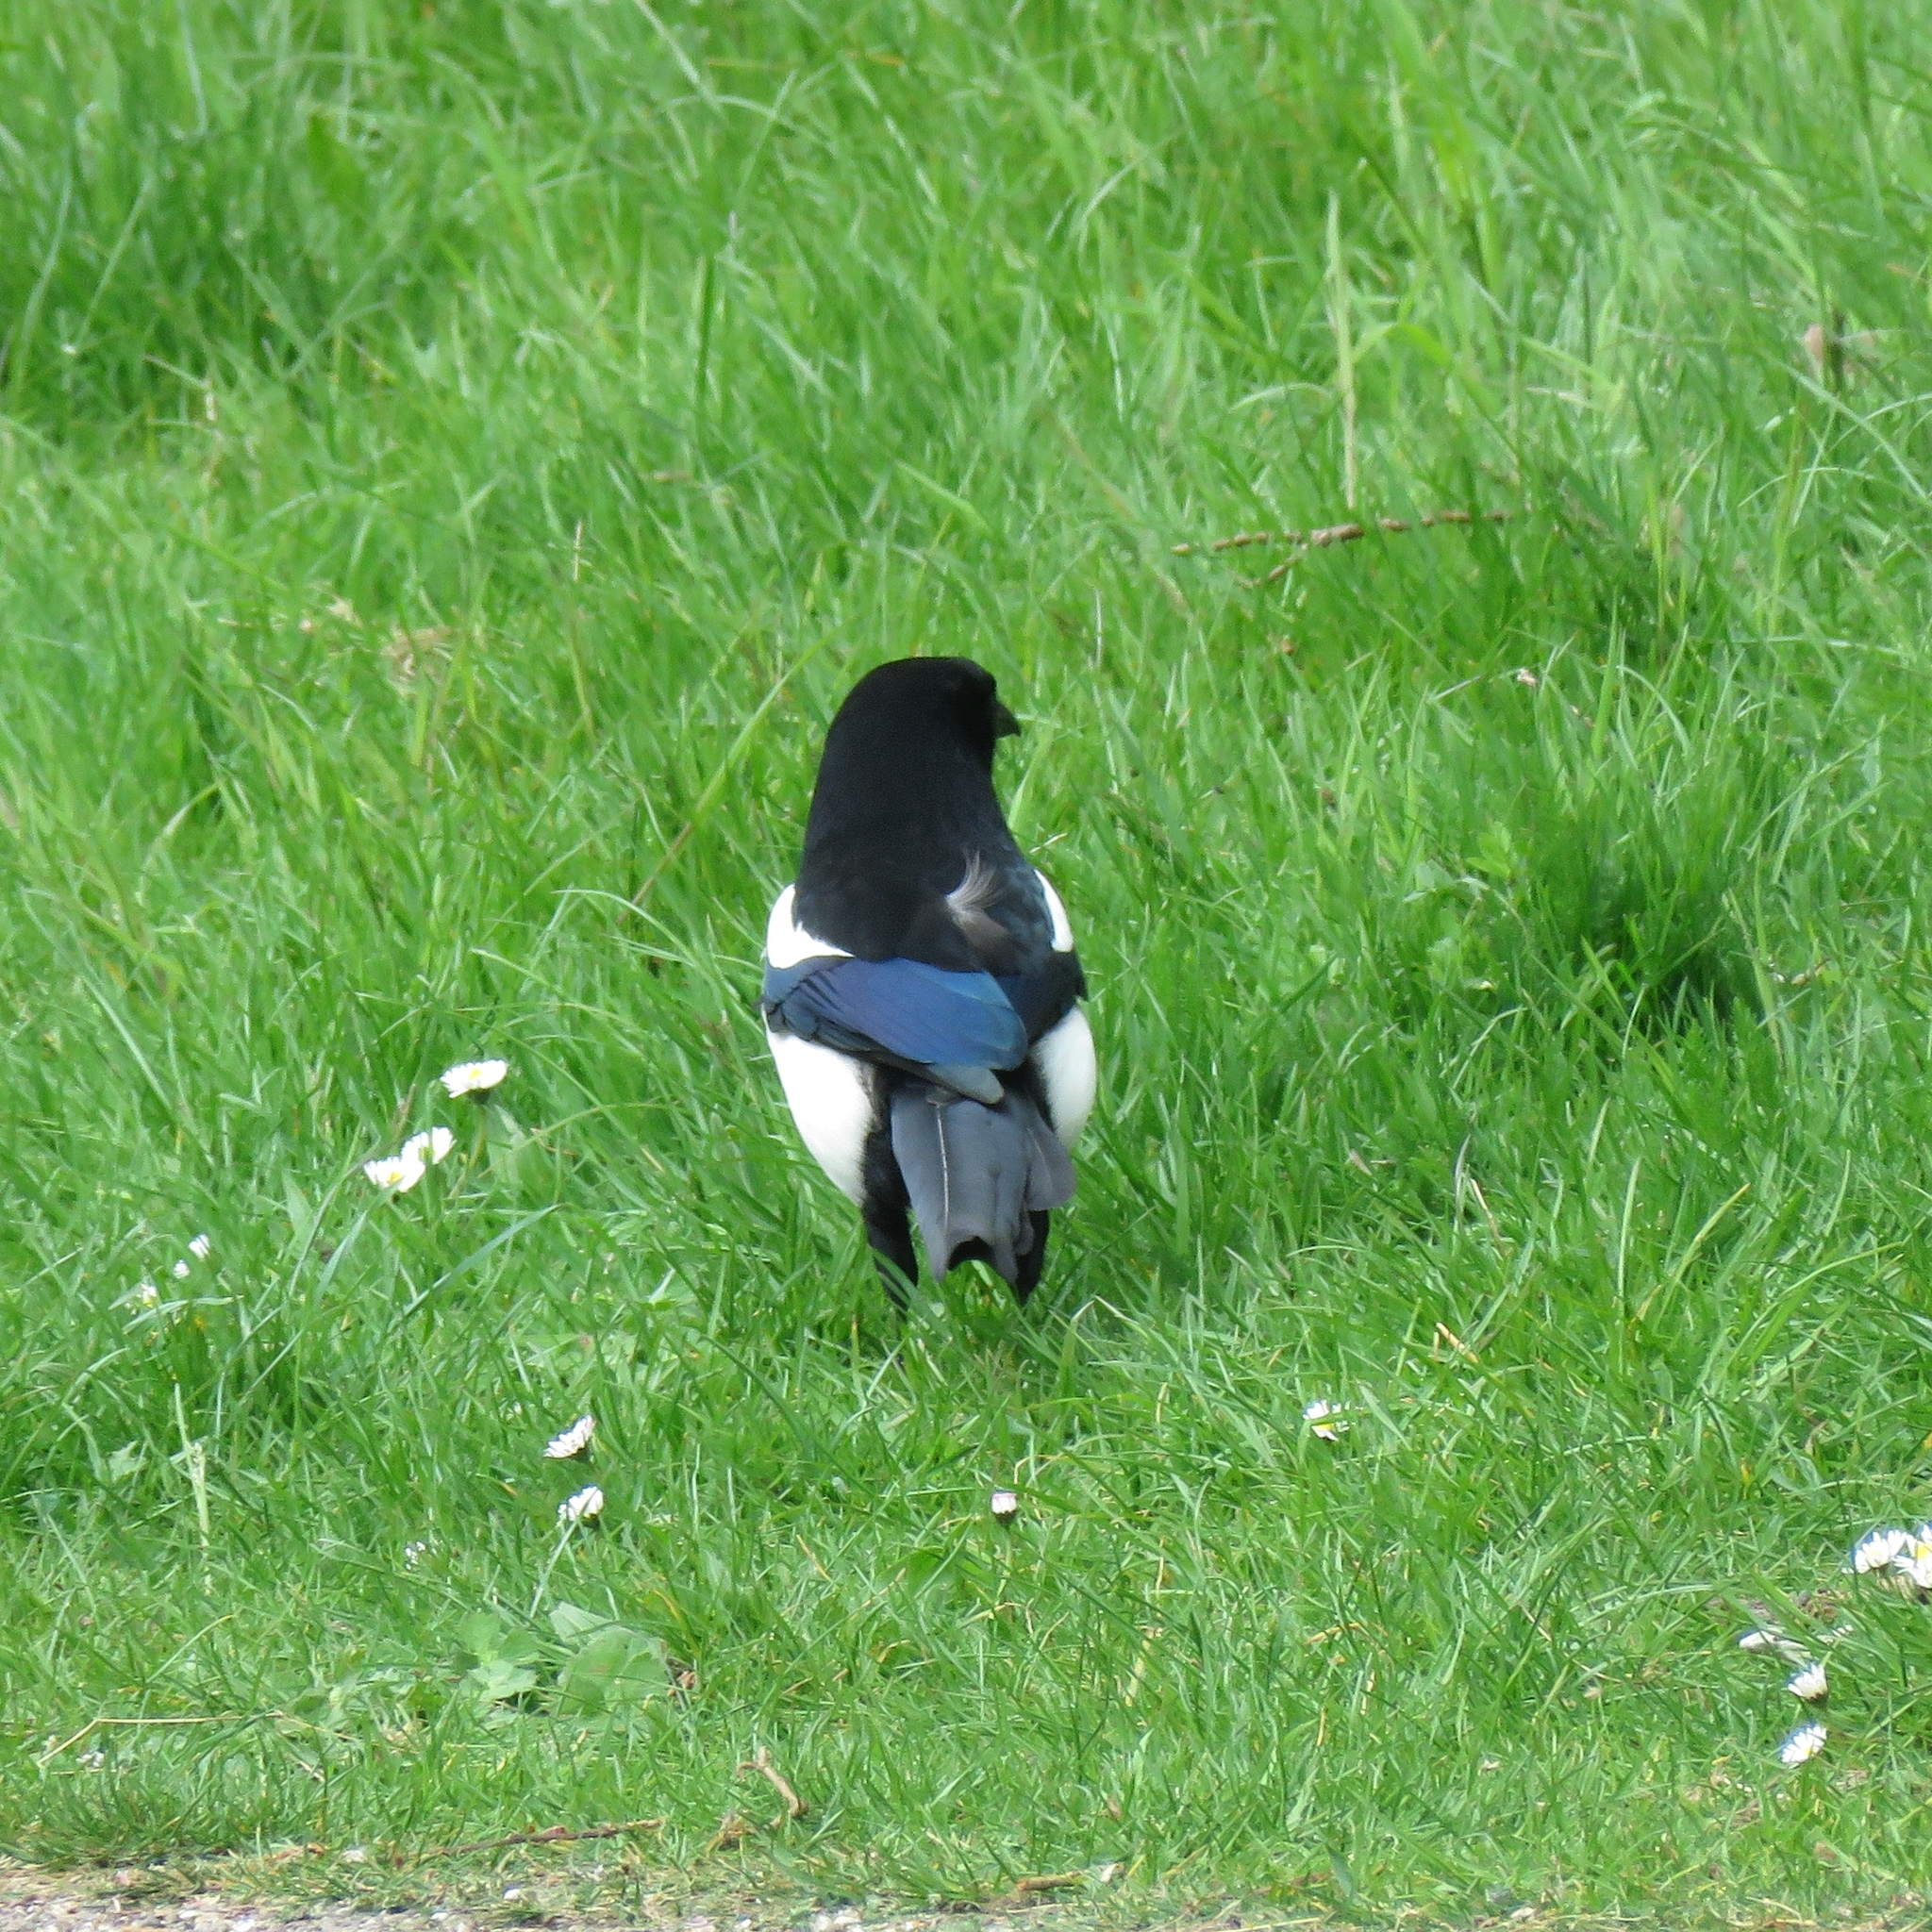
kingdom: Animalia
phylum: Chordata
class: Aves
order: Passeriformes
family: Corvidae
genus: Pica
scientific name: Pica pica
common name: Eurasian magpie
